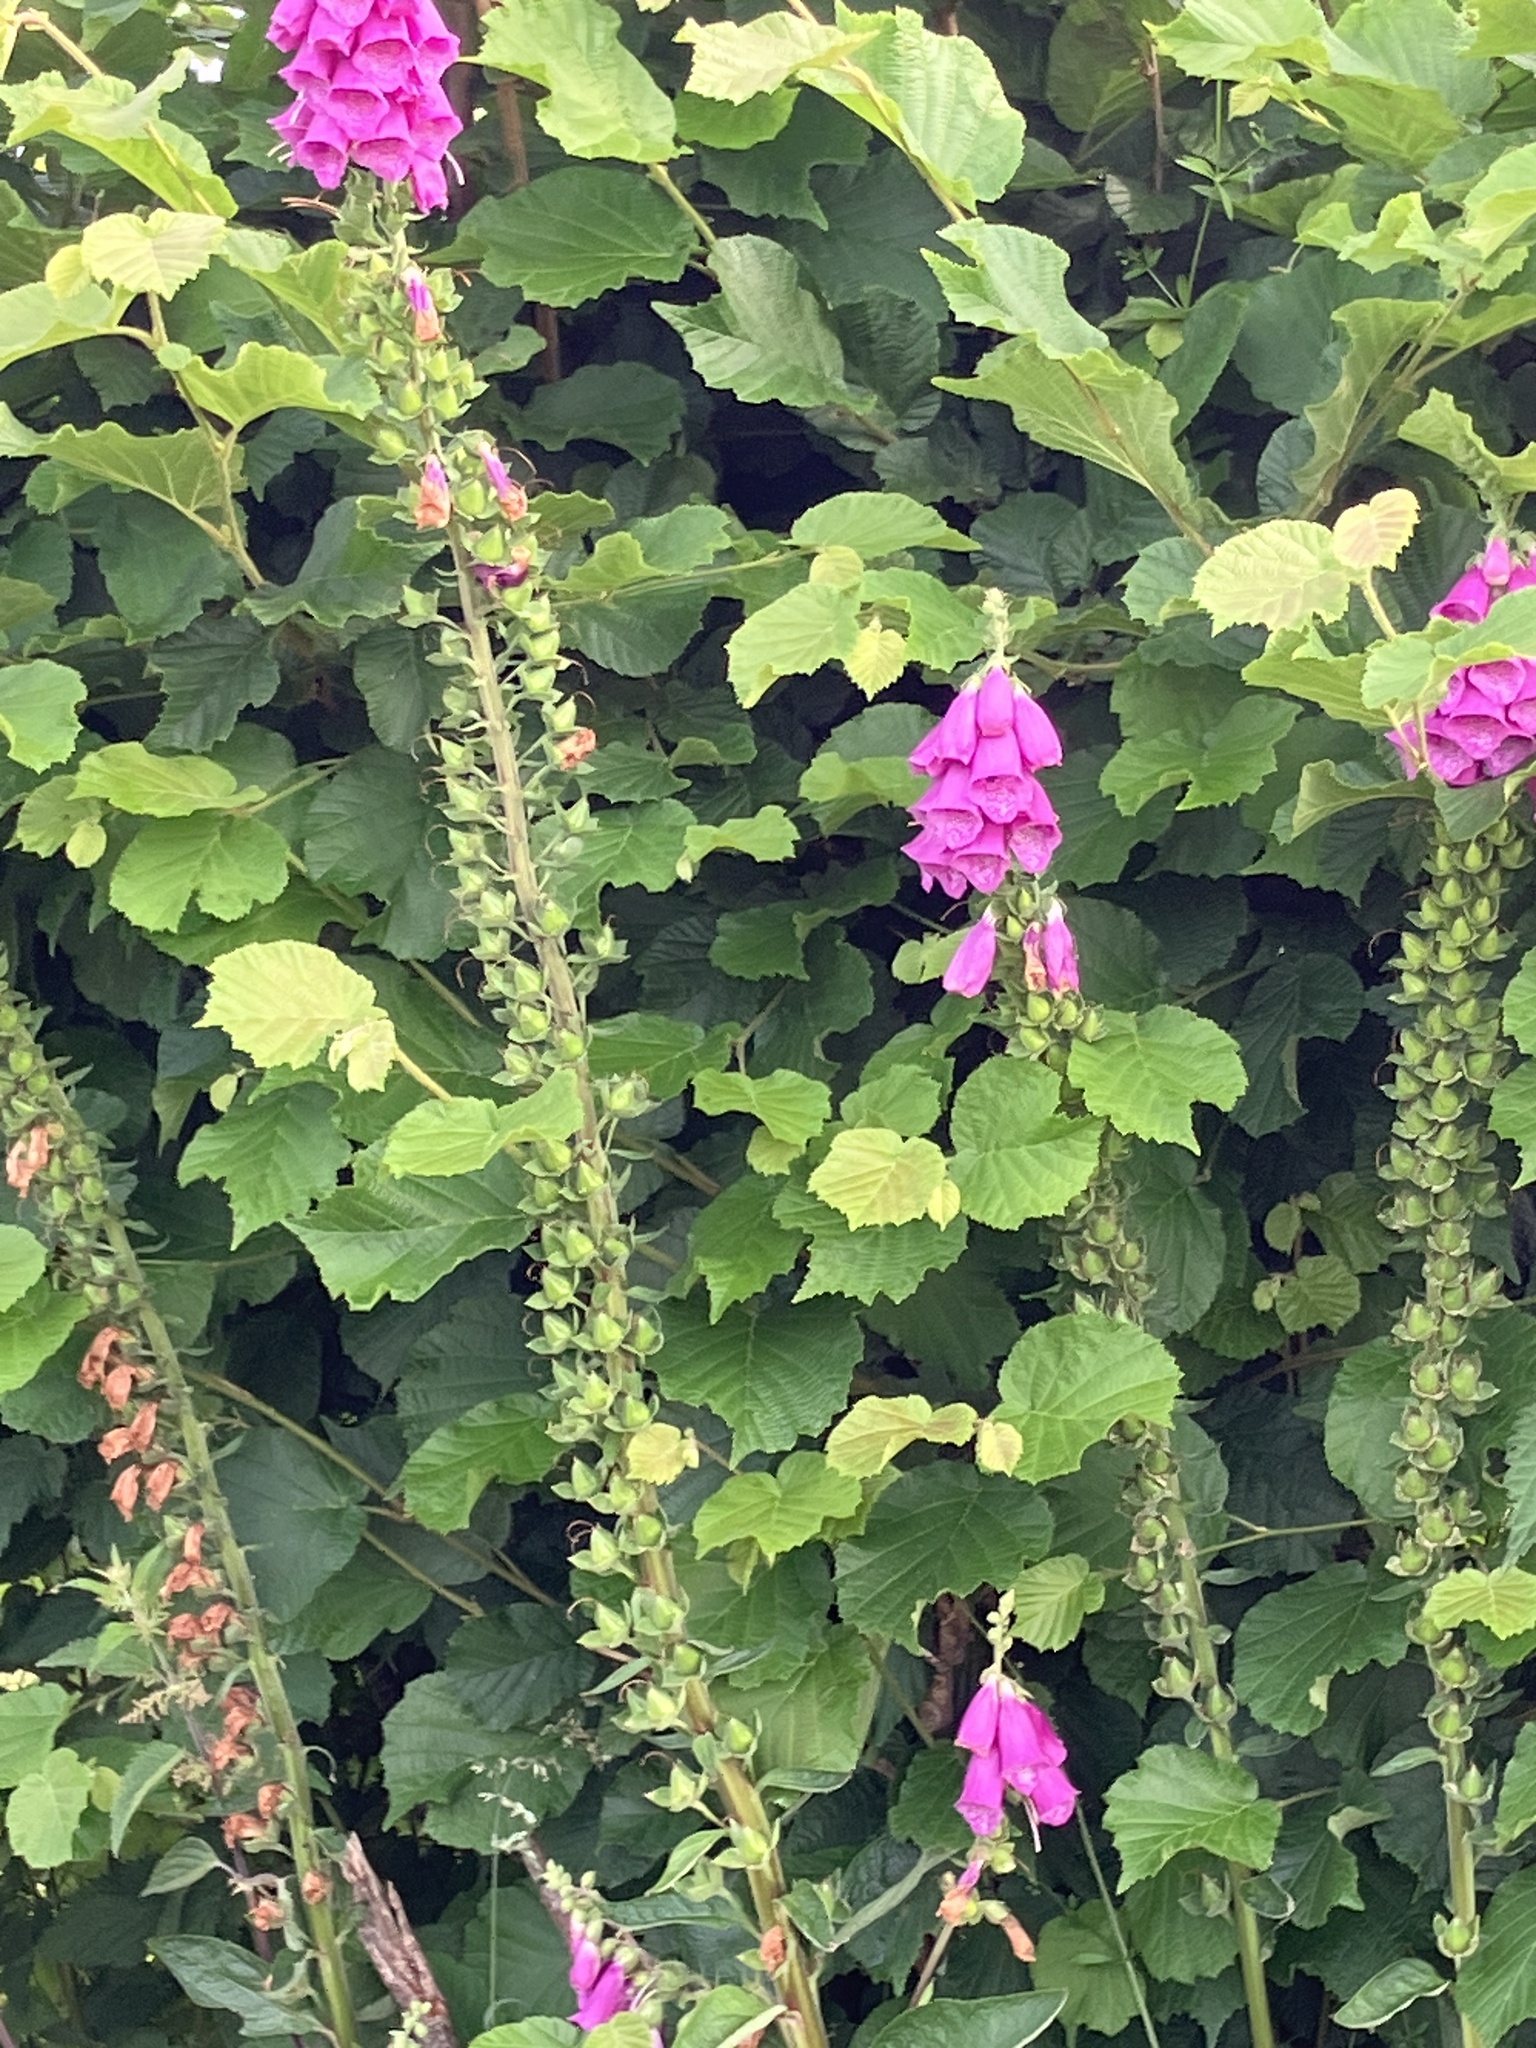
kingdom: Plantae
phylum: Tracheophyta
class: Magnoliopsida
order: Lamiales
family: Plantaginaceae
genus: Digitalis
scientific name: Digitalis purpurea
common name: Foxglove
